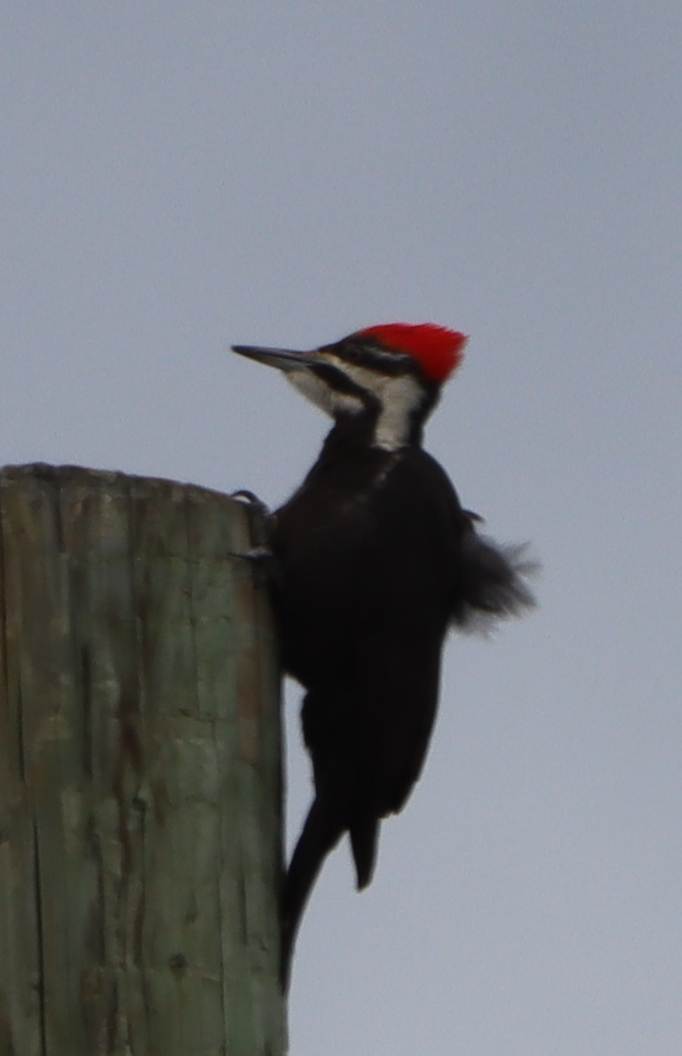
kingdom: Animalia
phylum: Chordata
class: Aves
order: Piciformes
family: Picidae
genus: Dryocopus
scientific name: Dryocopus pileatus
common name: Pileated woodpecker
